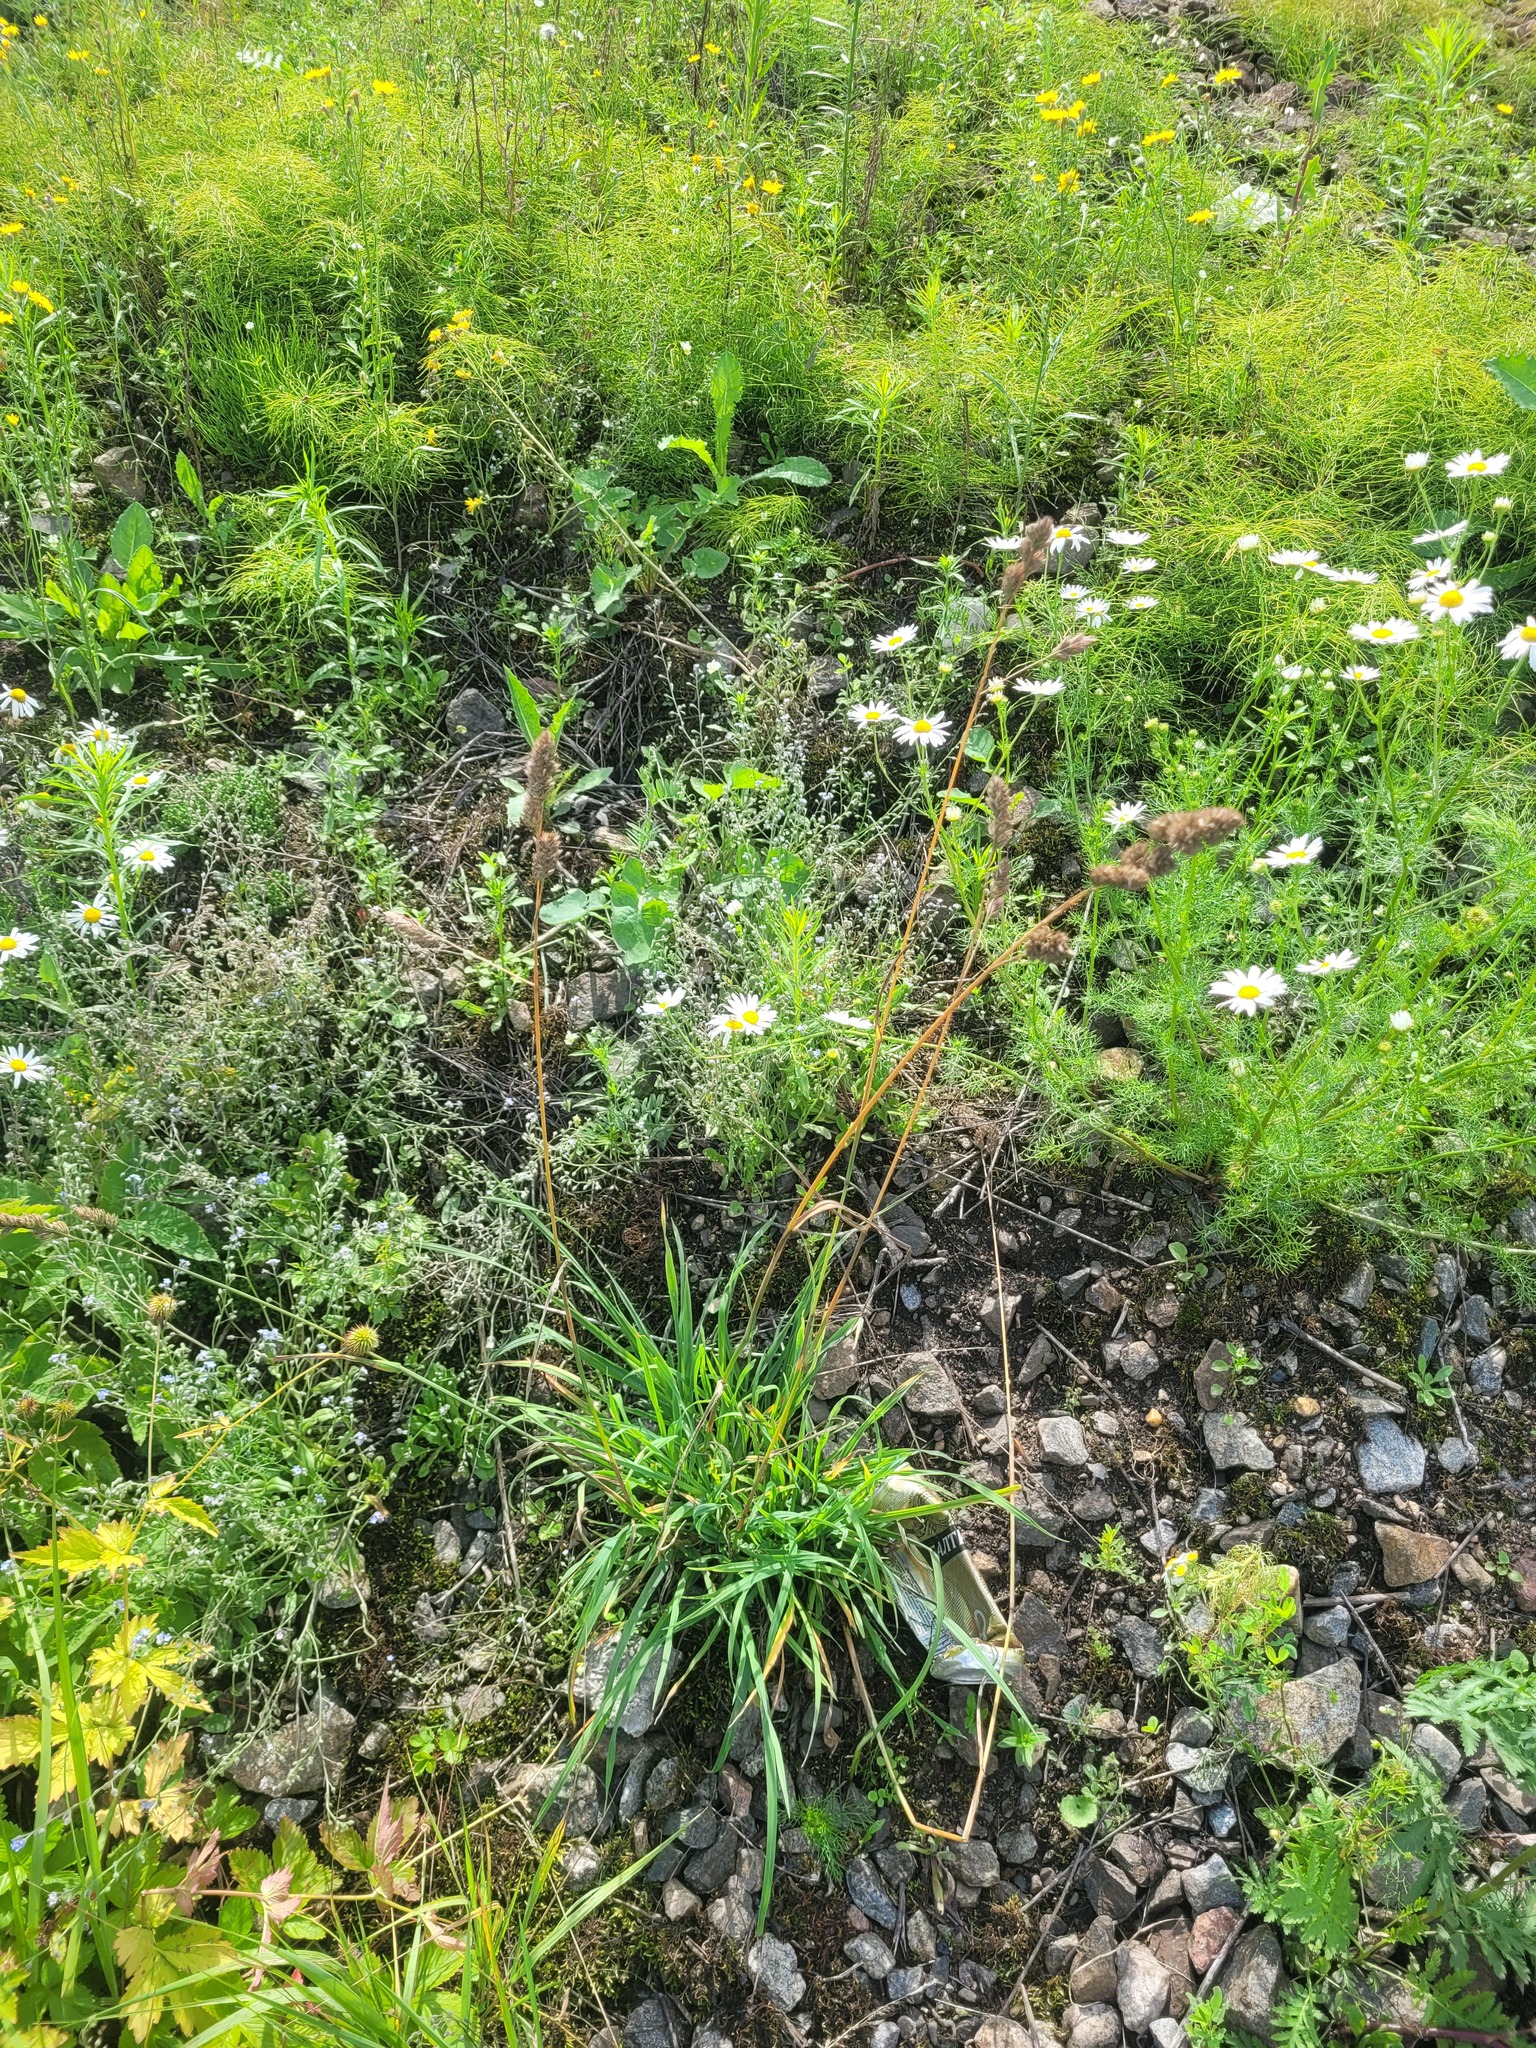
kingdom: Plantae
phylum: Tracheophyta
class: Liliopsida
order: Poales
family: Poaceae
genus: Dactylis
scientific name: Dactylis glomerata
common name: Orchardgrass
